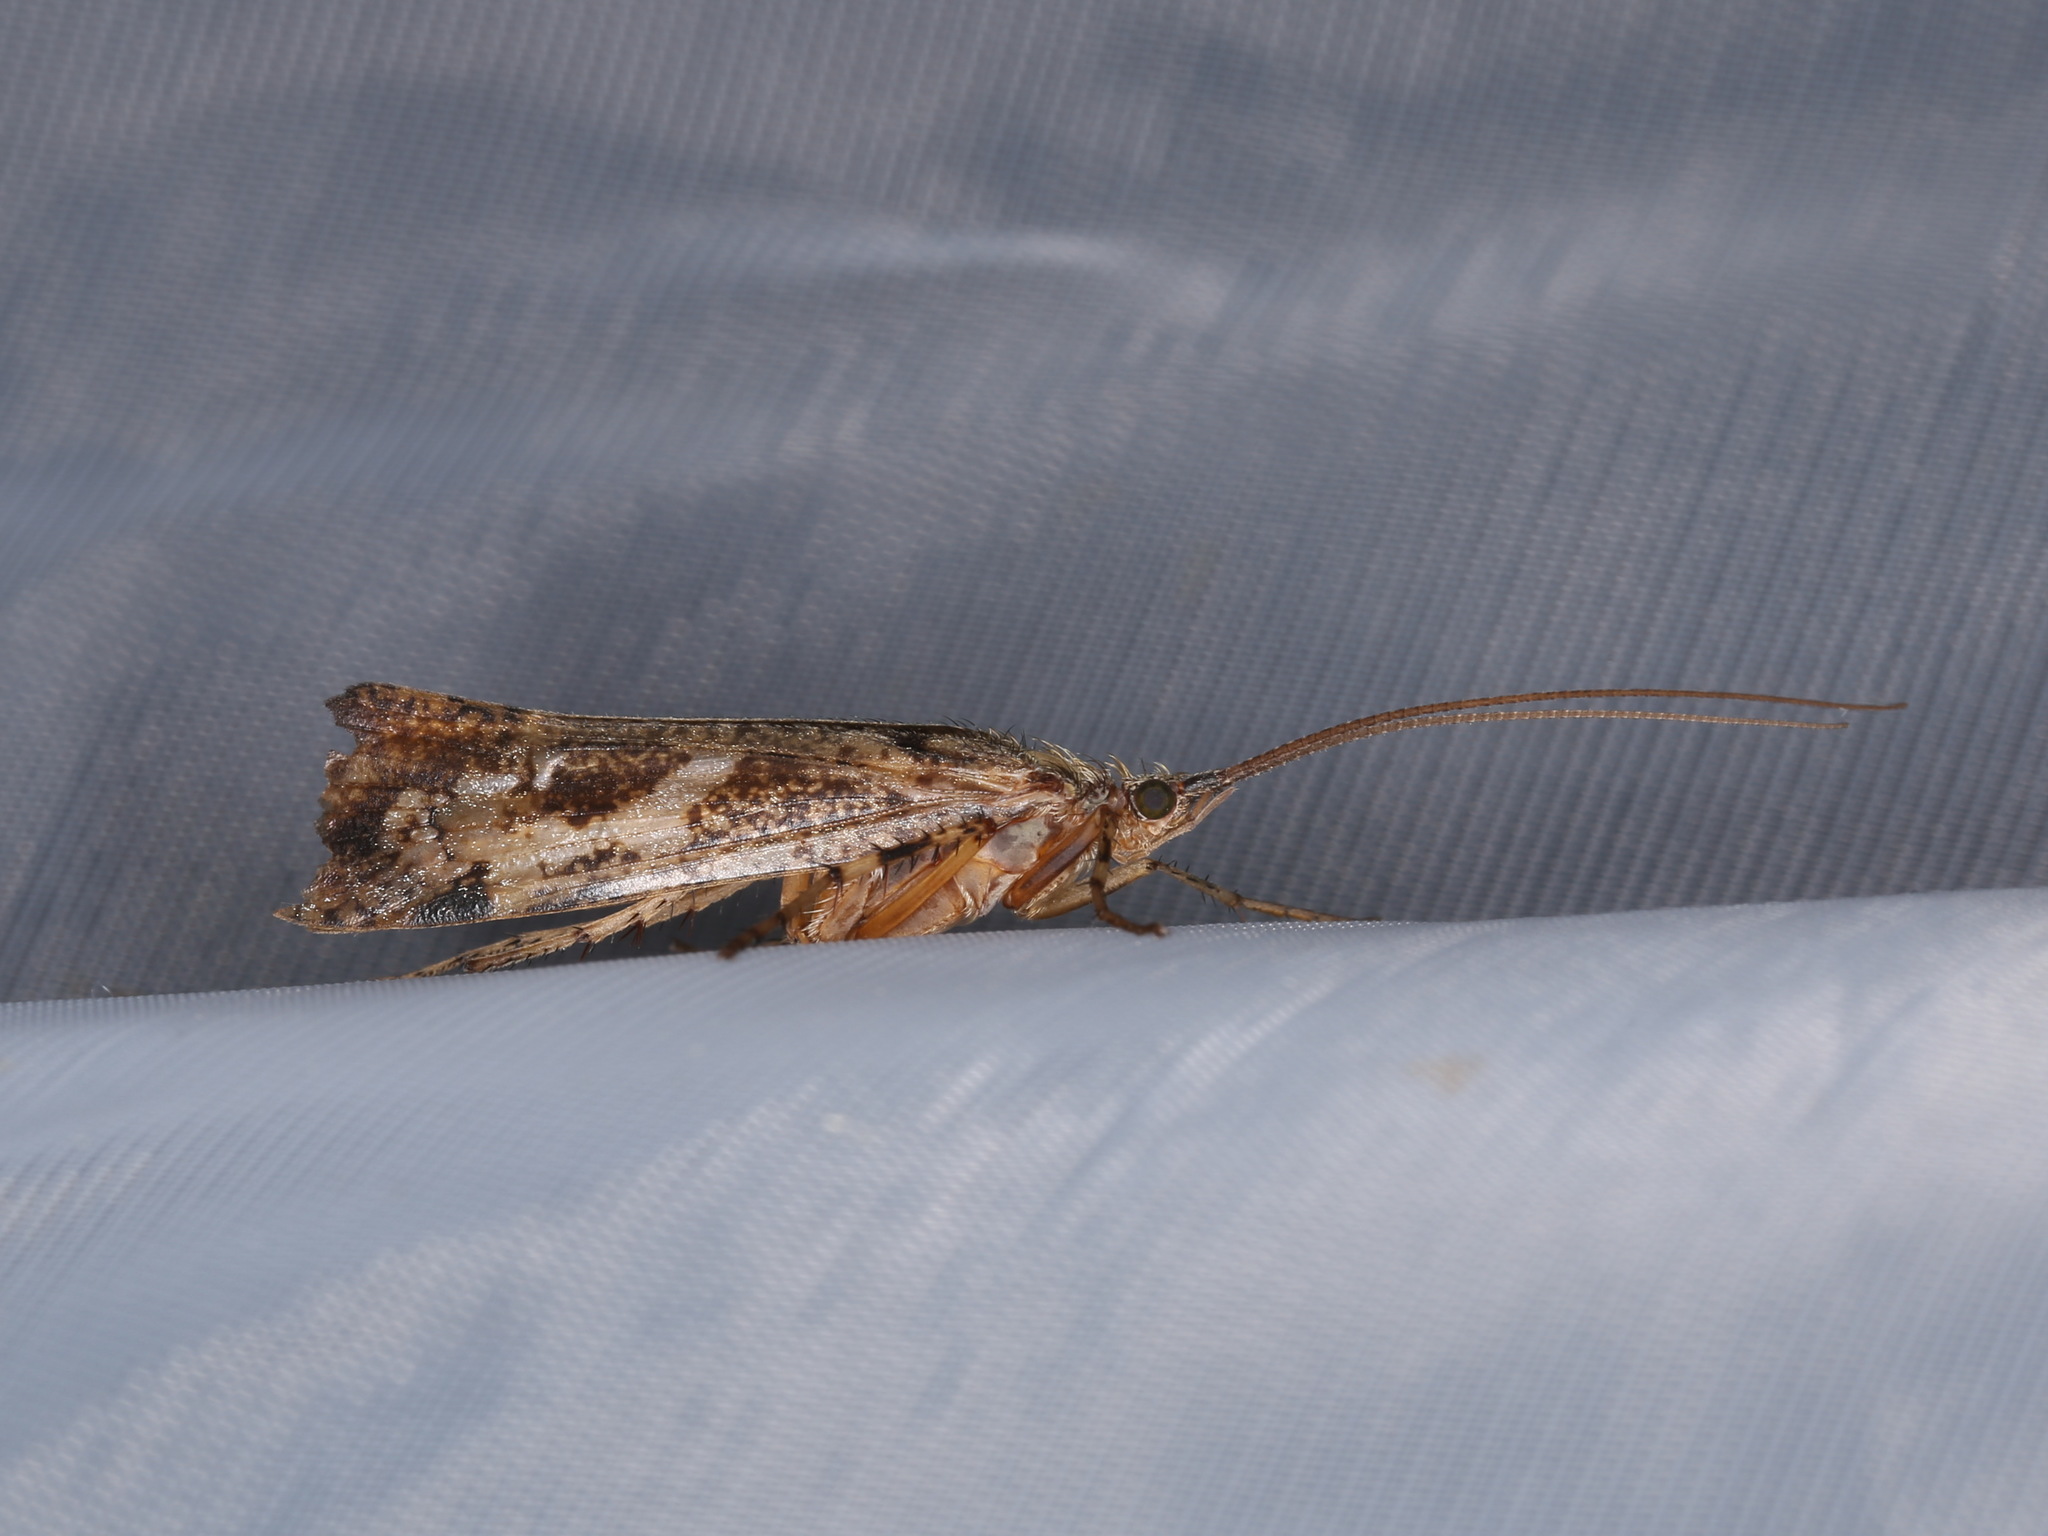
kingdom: Animalia
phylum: Arthropoda
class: Insecta
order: Trichoptera
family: Limnephilidae
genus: Glyphotaelius
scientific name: Glyphotaelius pellucidus
